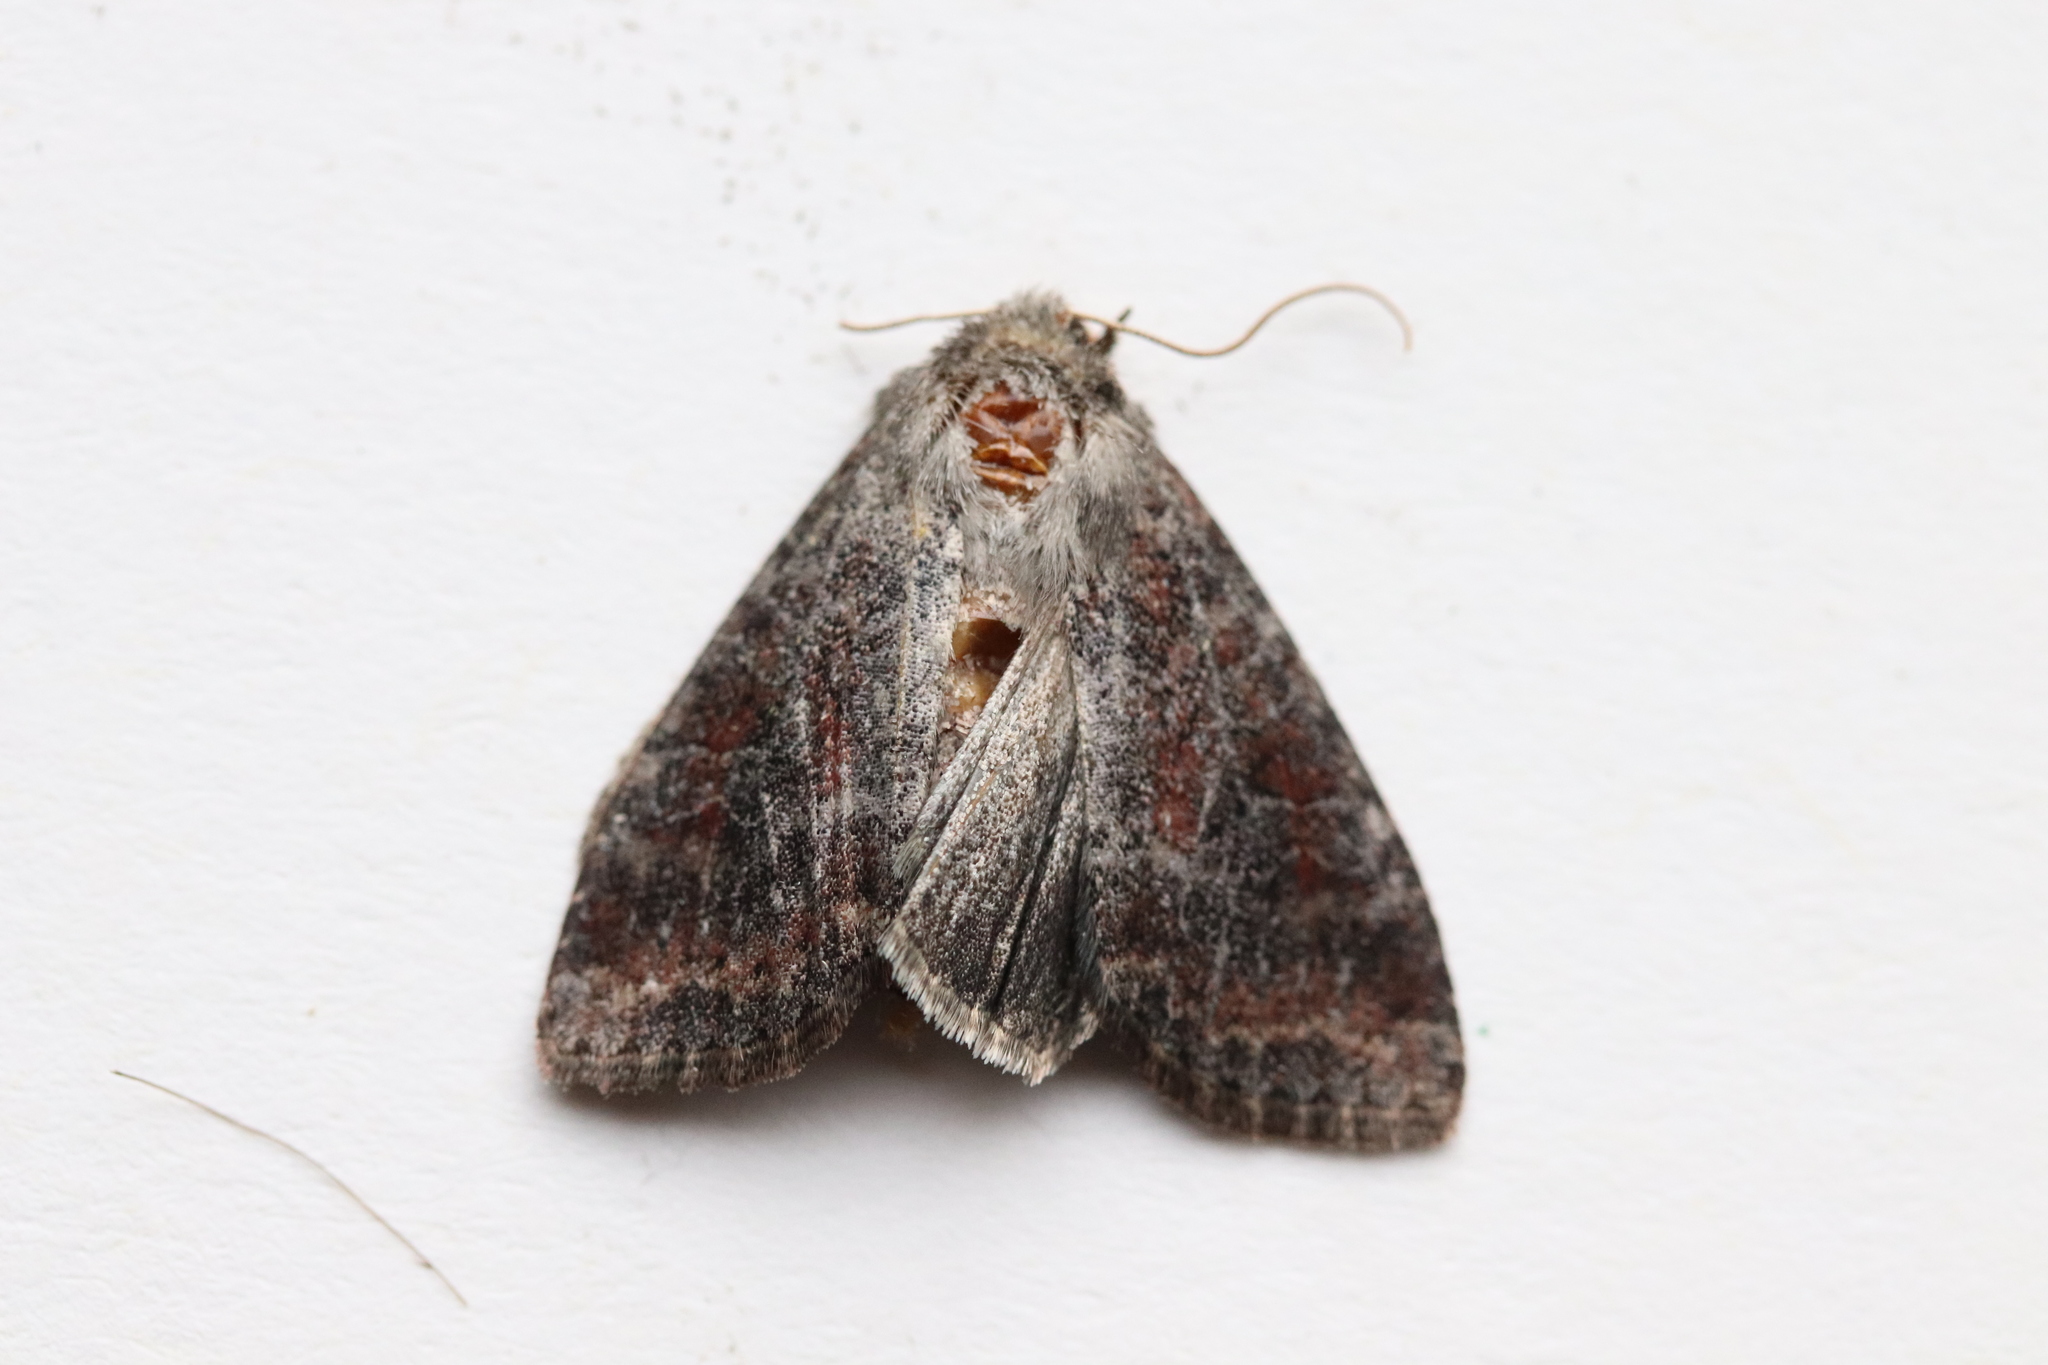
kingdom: Animalia
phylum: Arthropoda
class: Insecta
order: Lepidoptera
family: Noctuidae
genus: Parastichtis
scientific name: Parastichtis suspecta
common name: Suspected
